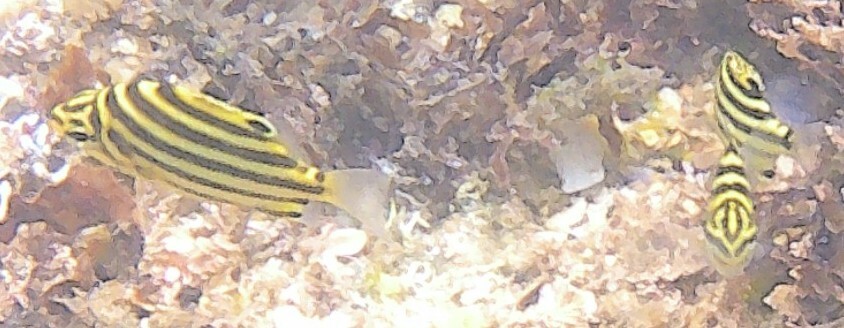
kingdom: Animalia
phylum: Chordata
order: Perciformes
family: Kyphosidae
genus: Microcanthus
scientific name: Microcanthus joyceae
